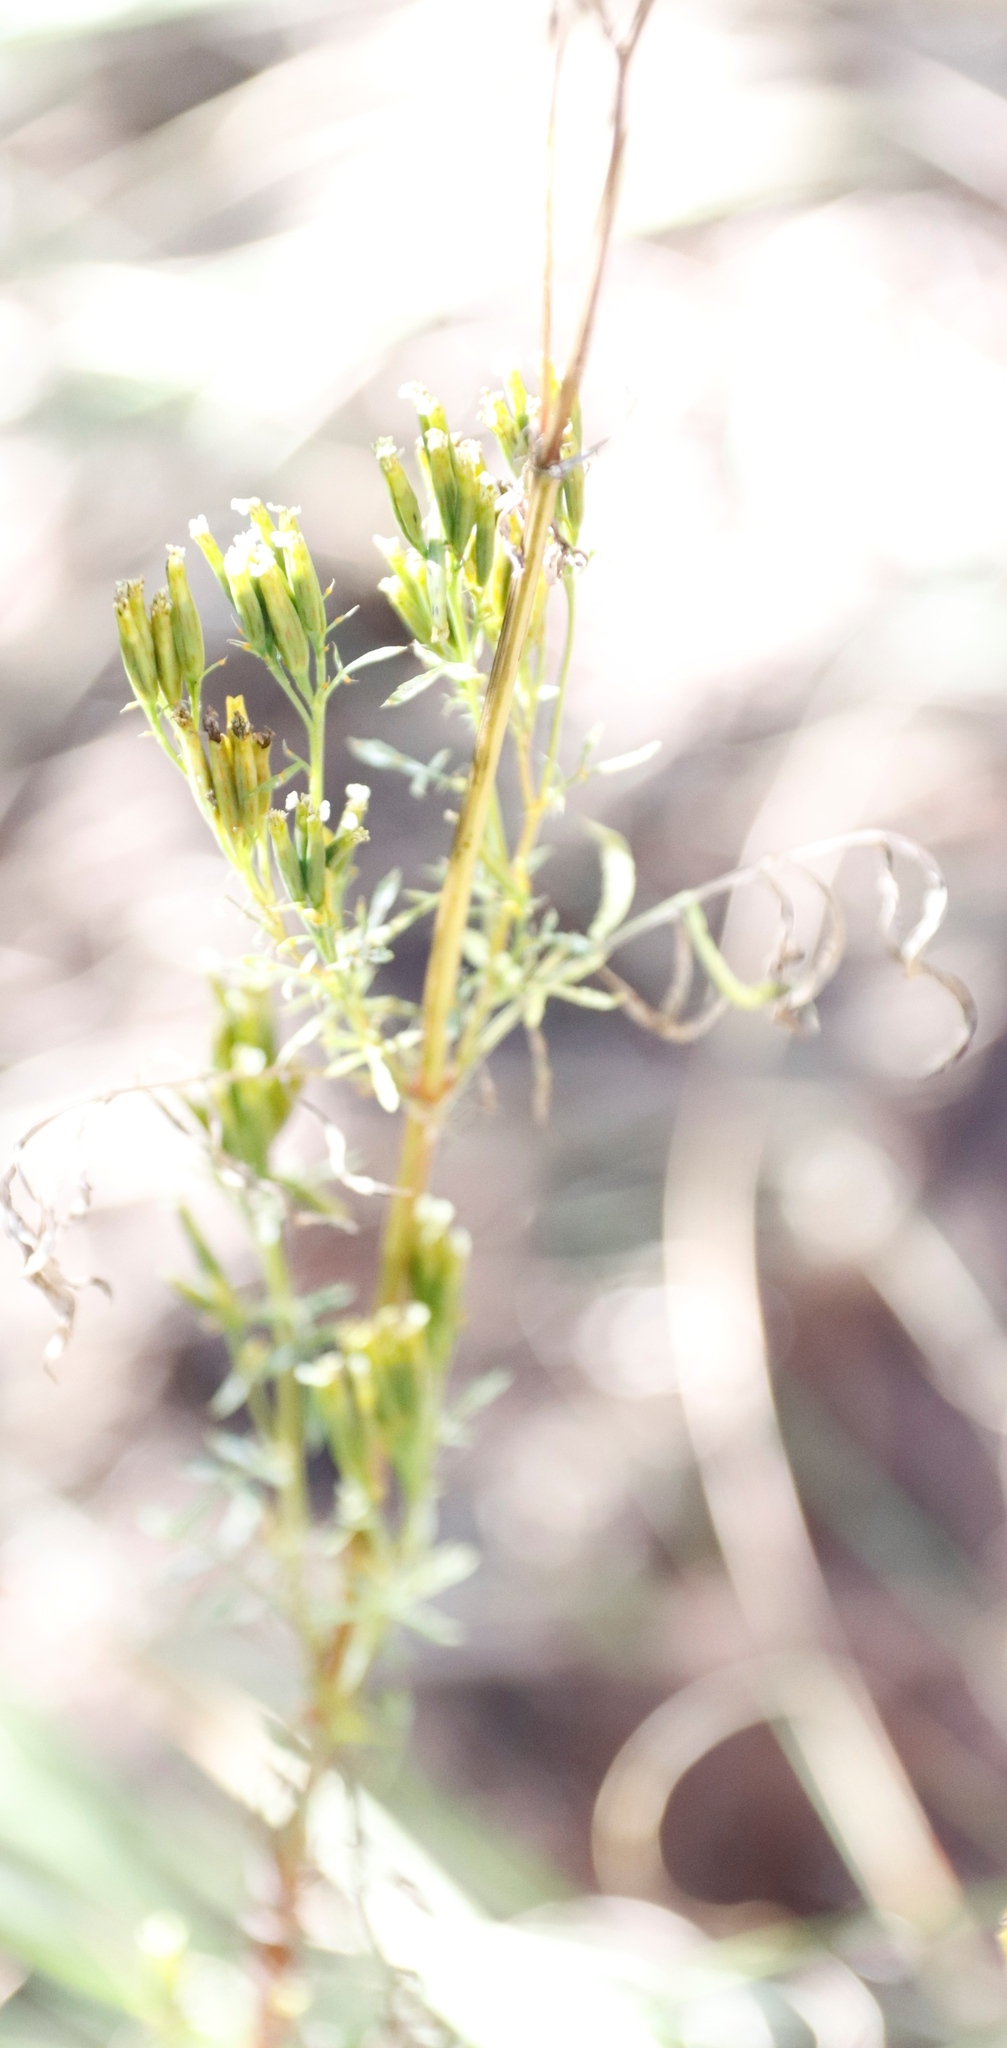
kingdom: Plantae
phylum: Tracheophyta
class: Magnoliopsida
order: Asterales
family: Asteraceae
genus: Tagetes
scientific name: Tagetes minuta
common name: Muster john henry
